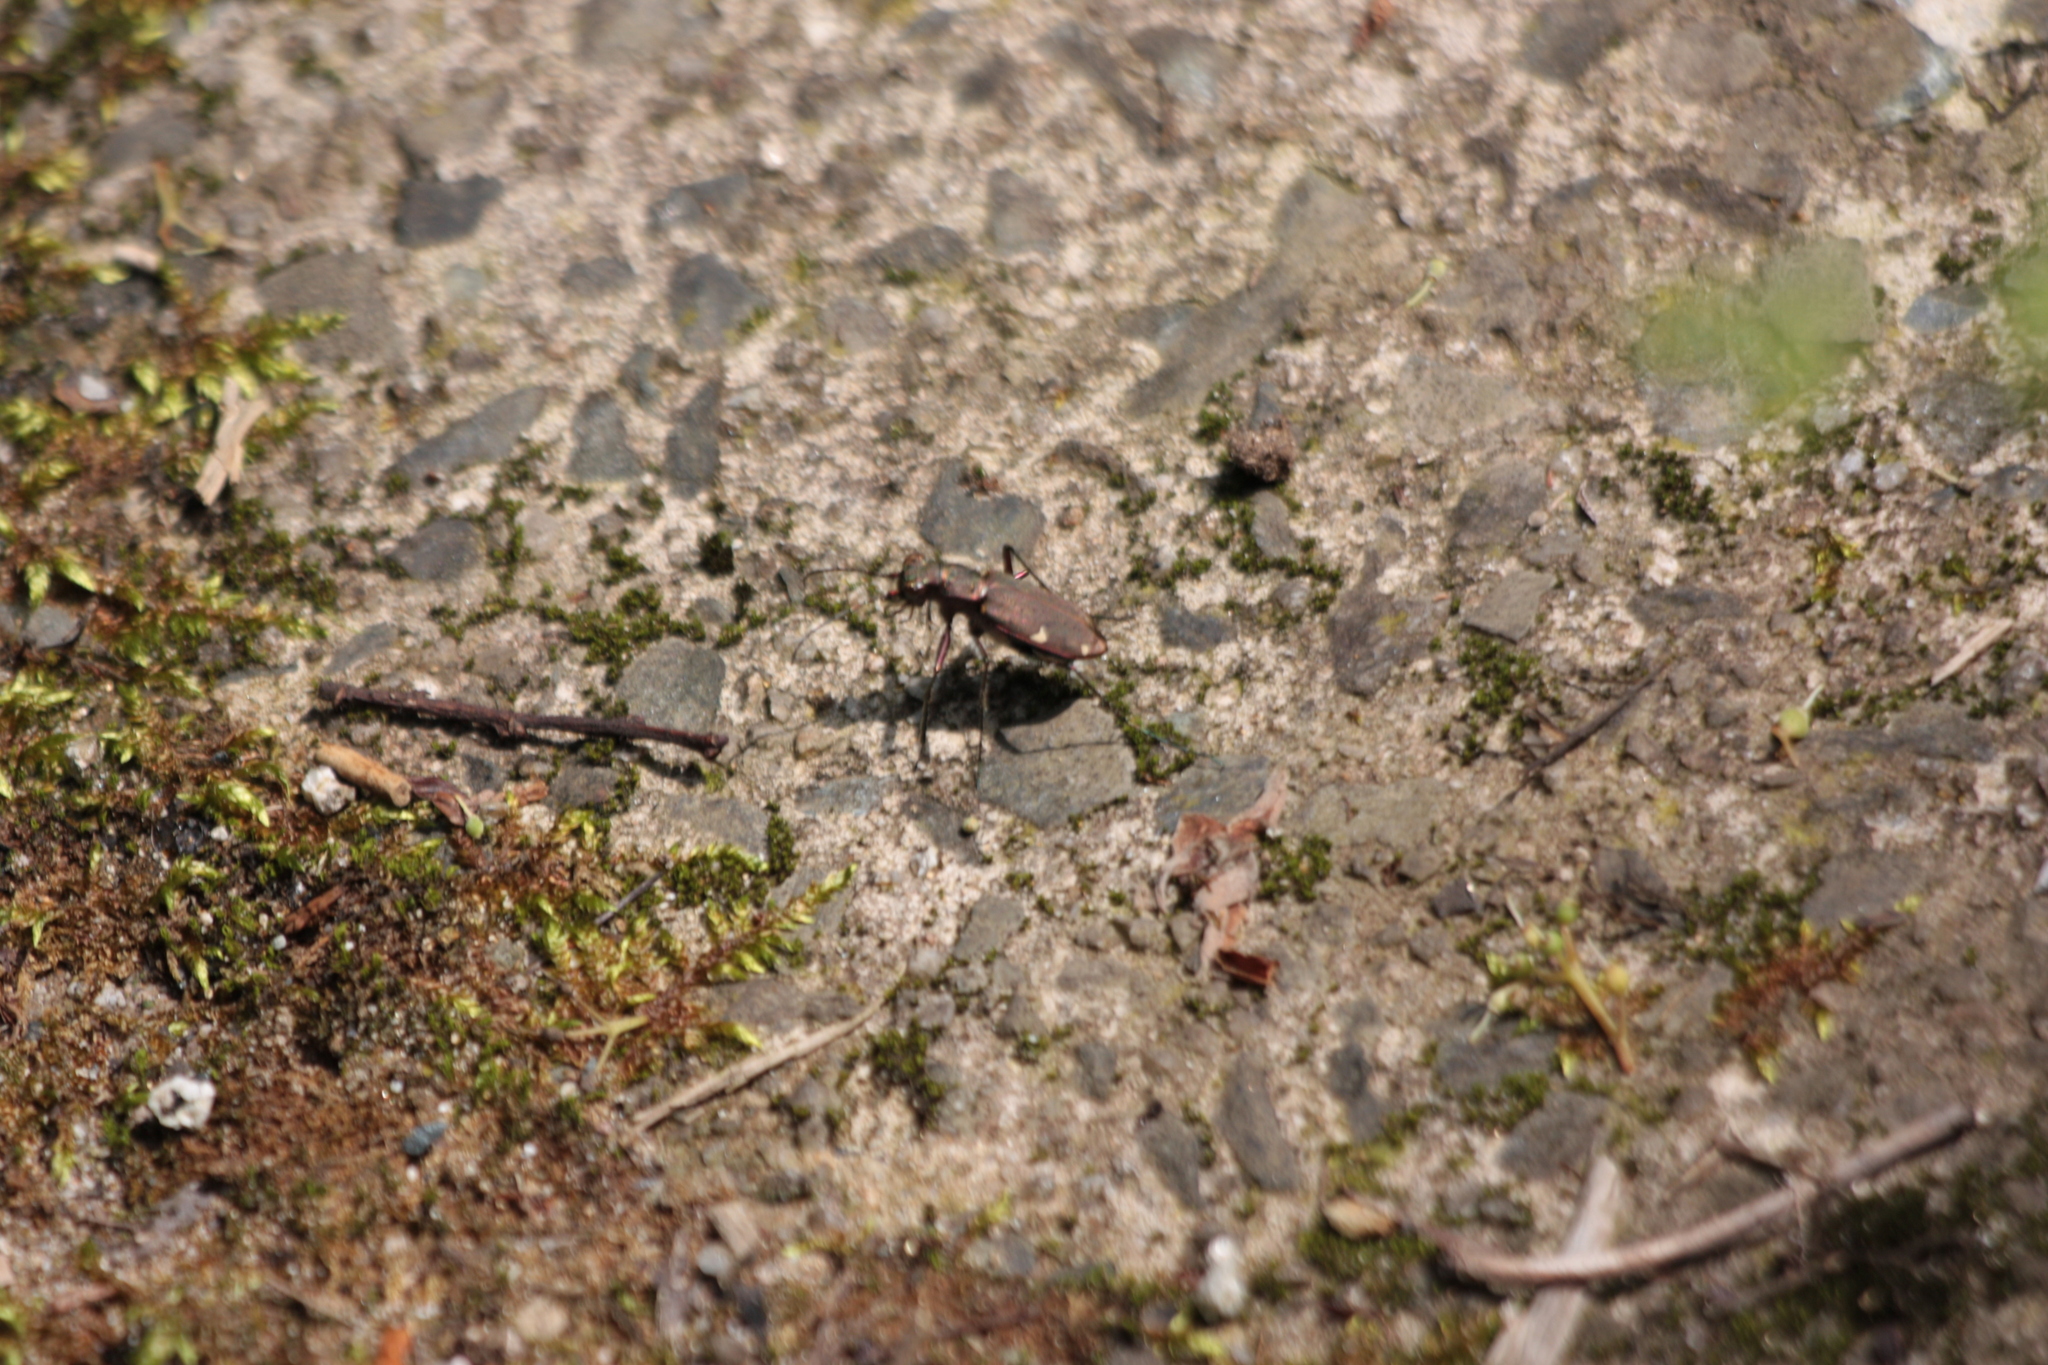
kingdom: Animalia
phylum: Arthropoda
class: Insecta
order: Coleoptera
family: Carabidae
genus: Cicindela
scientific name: Cicindela japana
